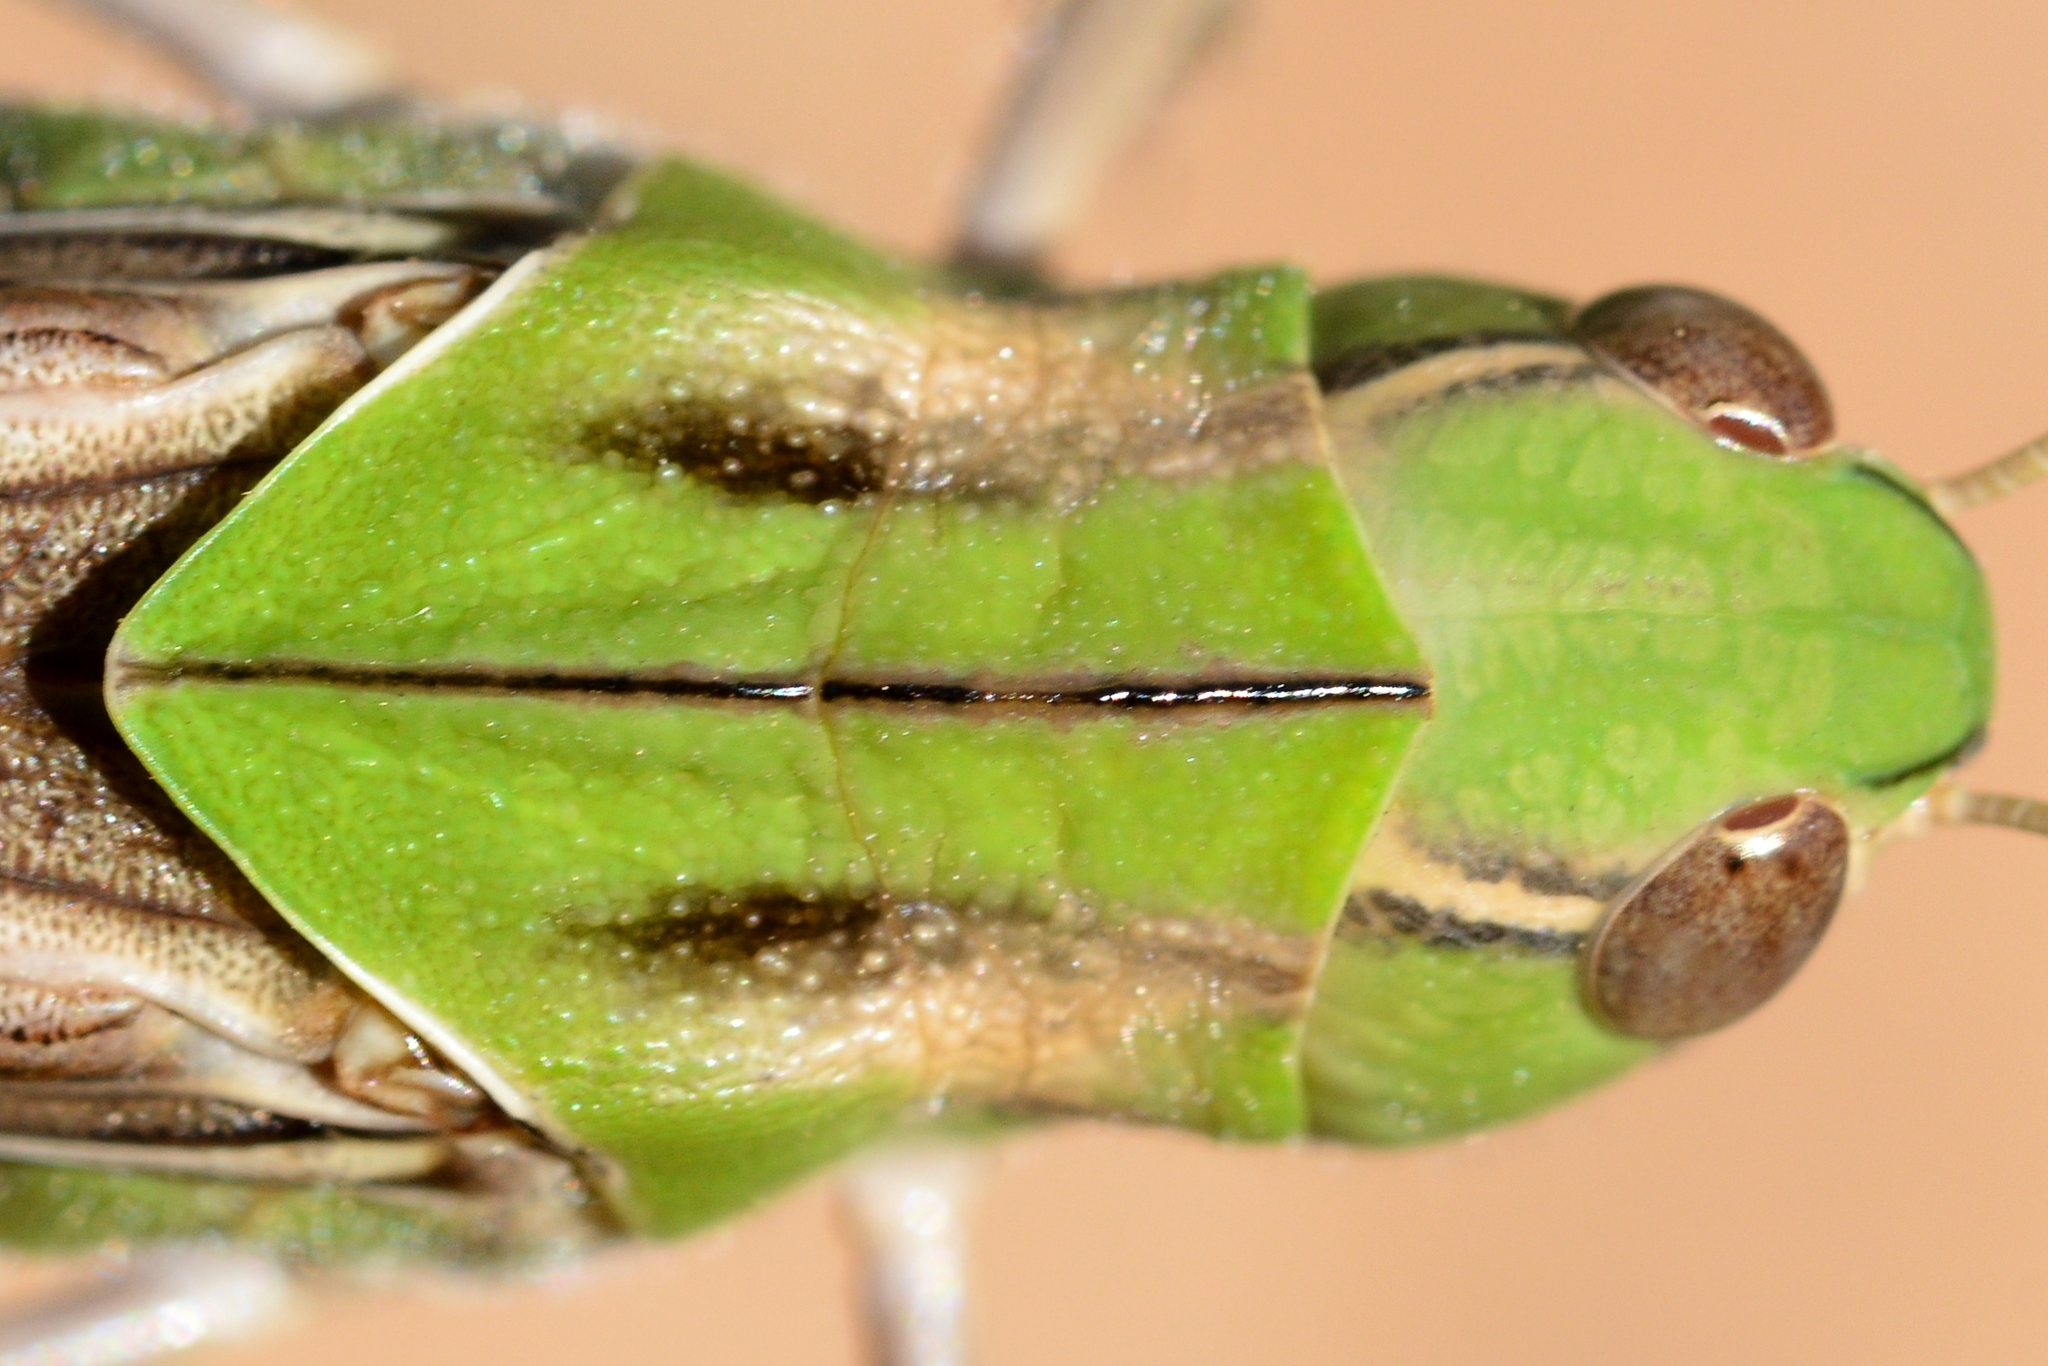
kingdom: Animalia
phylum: Arthropoda
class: Insecta
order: Orthoptera
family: Acrididae
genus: Locusta
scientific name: Locusta migratoria
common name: Migratory locust
